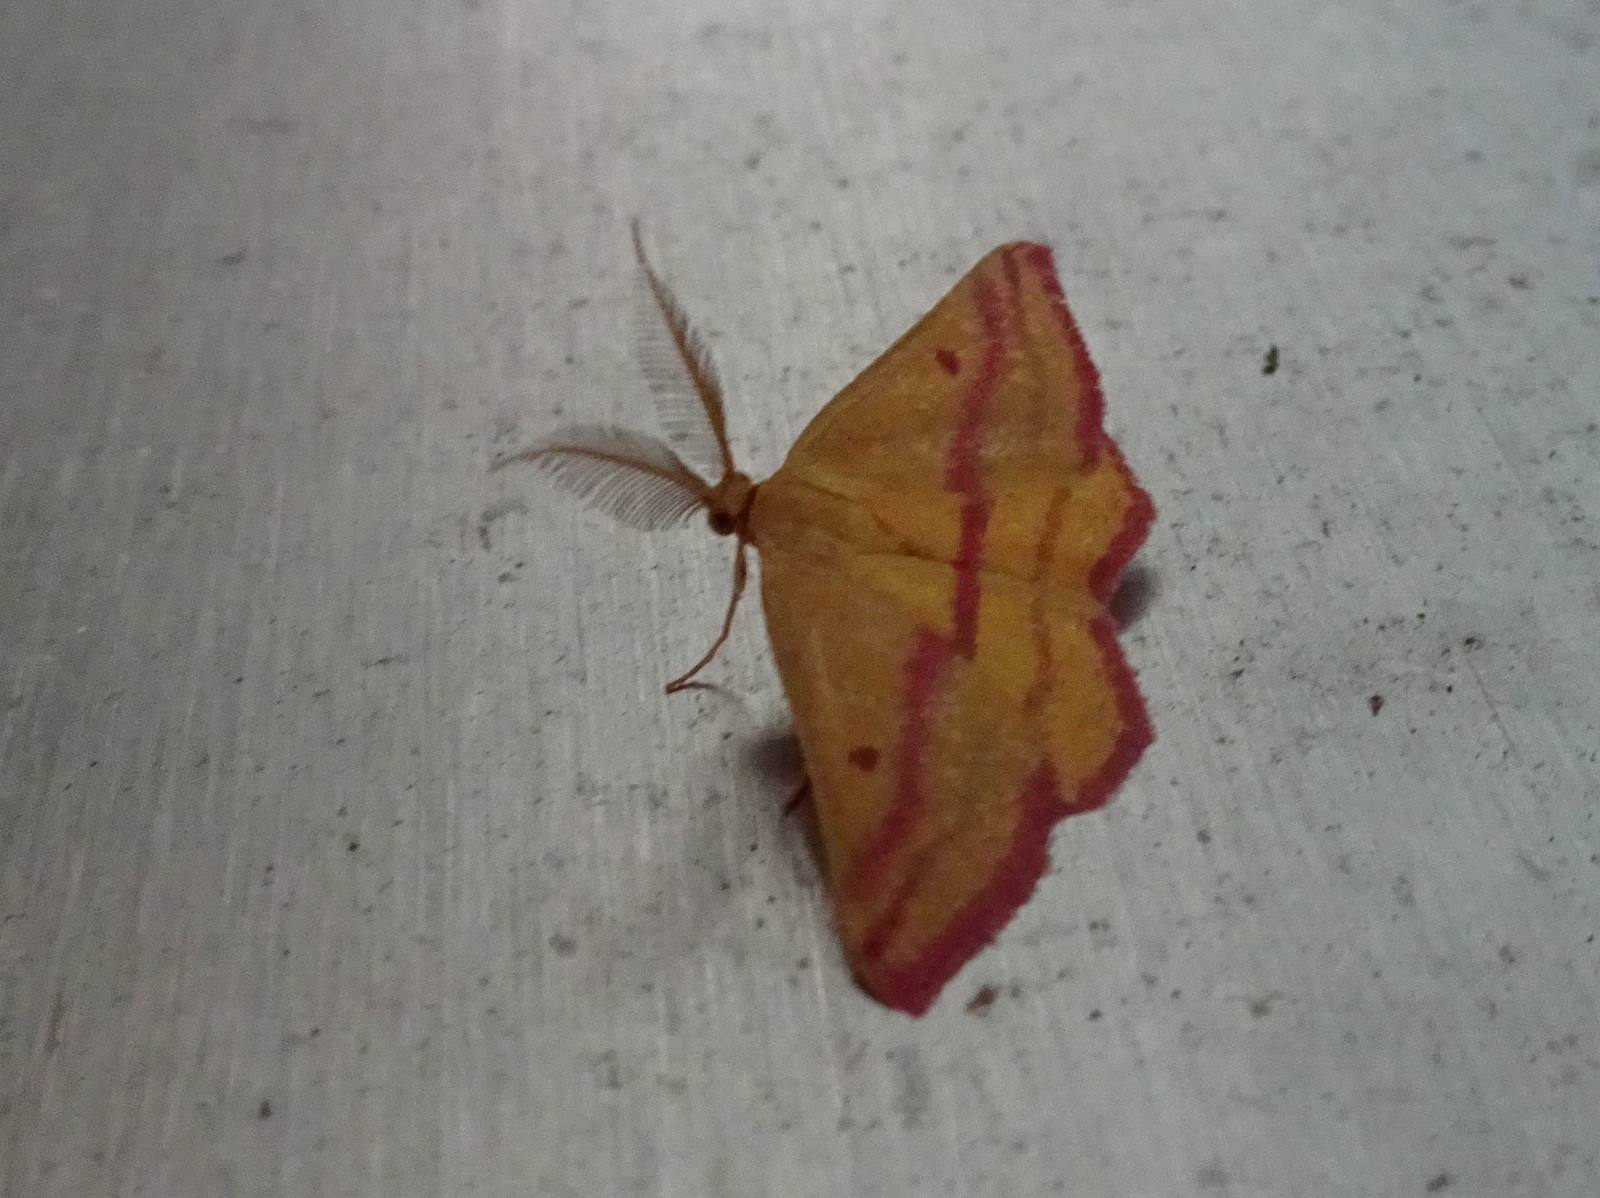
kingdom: Animalia
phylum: Arthropoda
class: Insecta
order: Lepidoptera
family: Geometridae
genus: Haematopis
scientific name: Haematopis grataria
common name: Chickweed geometer
